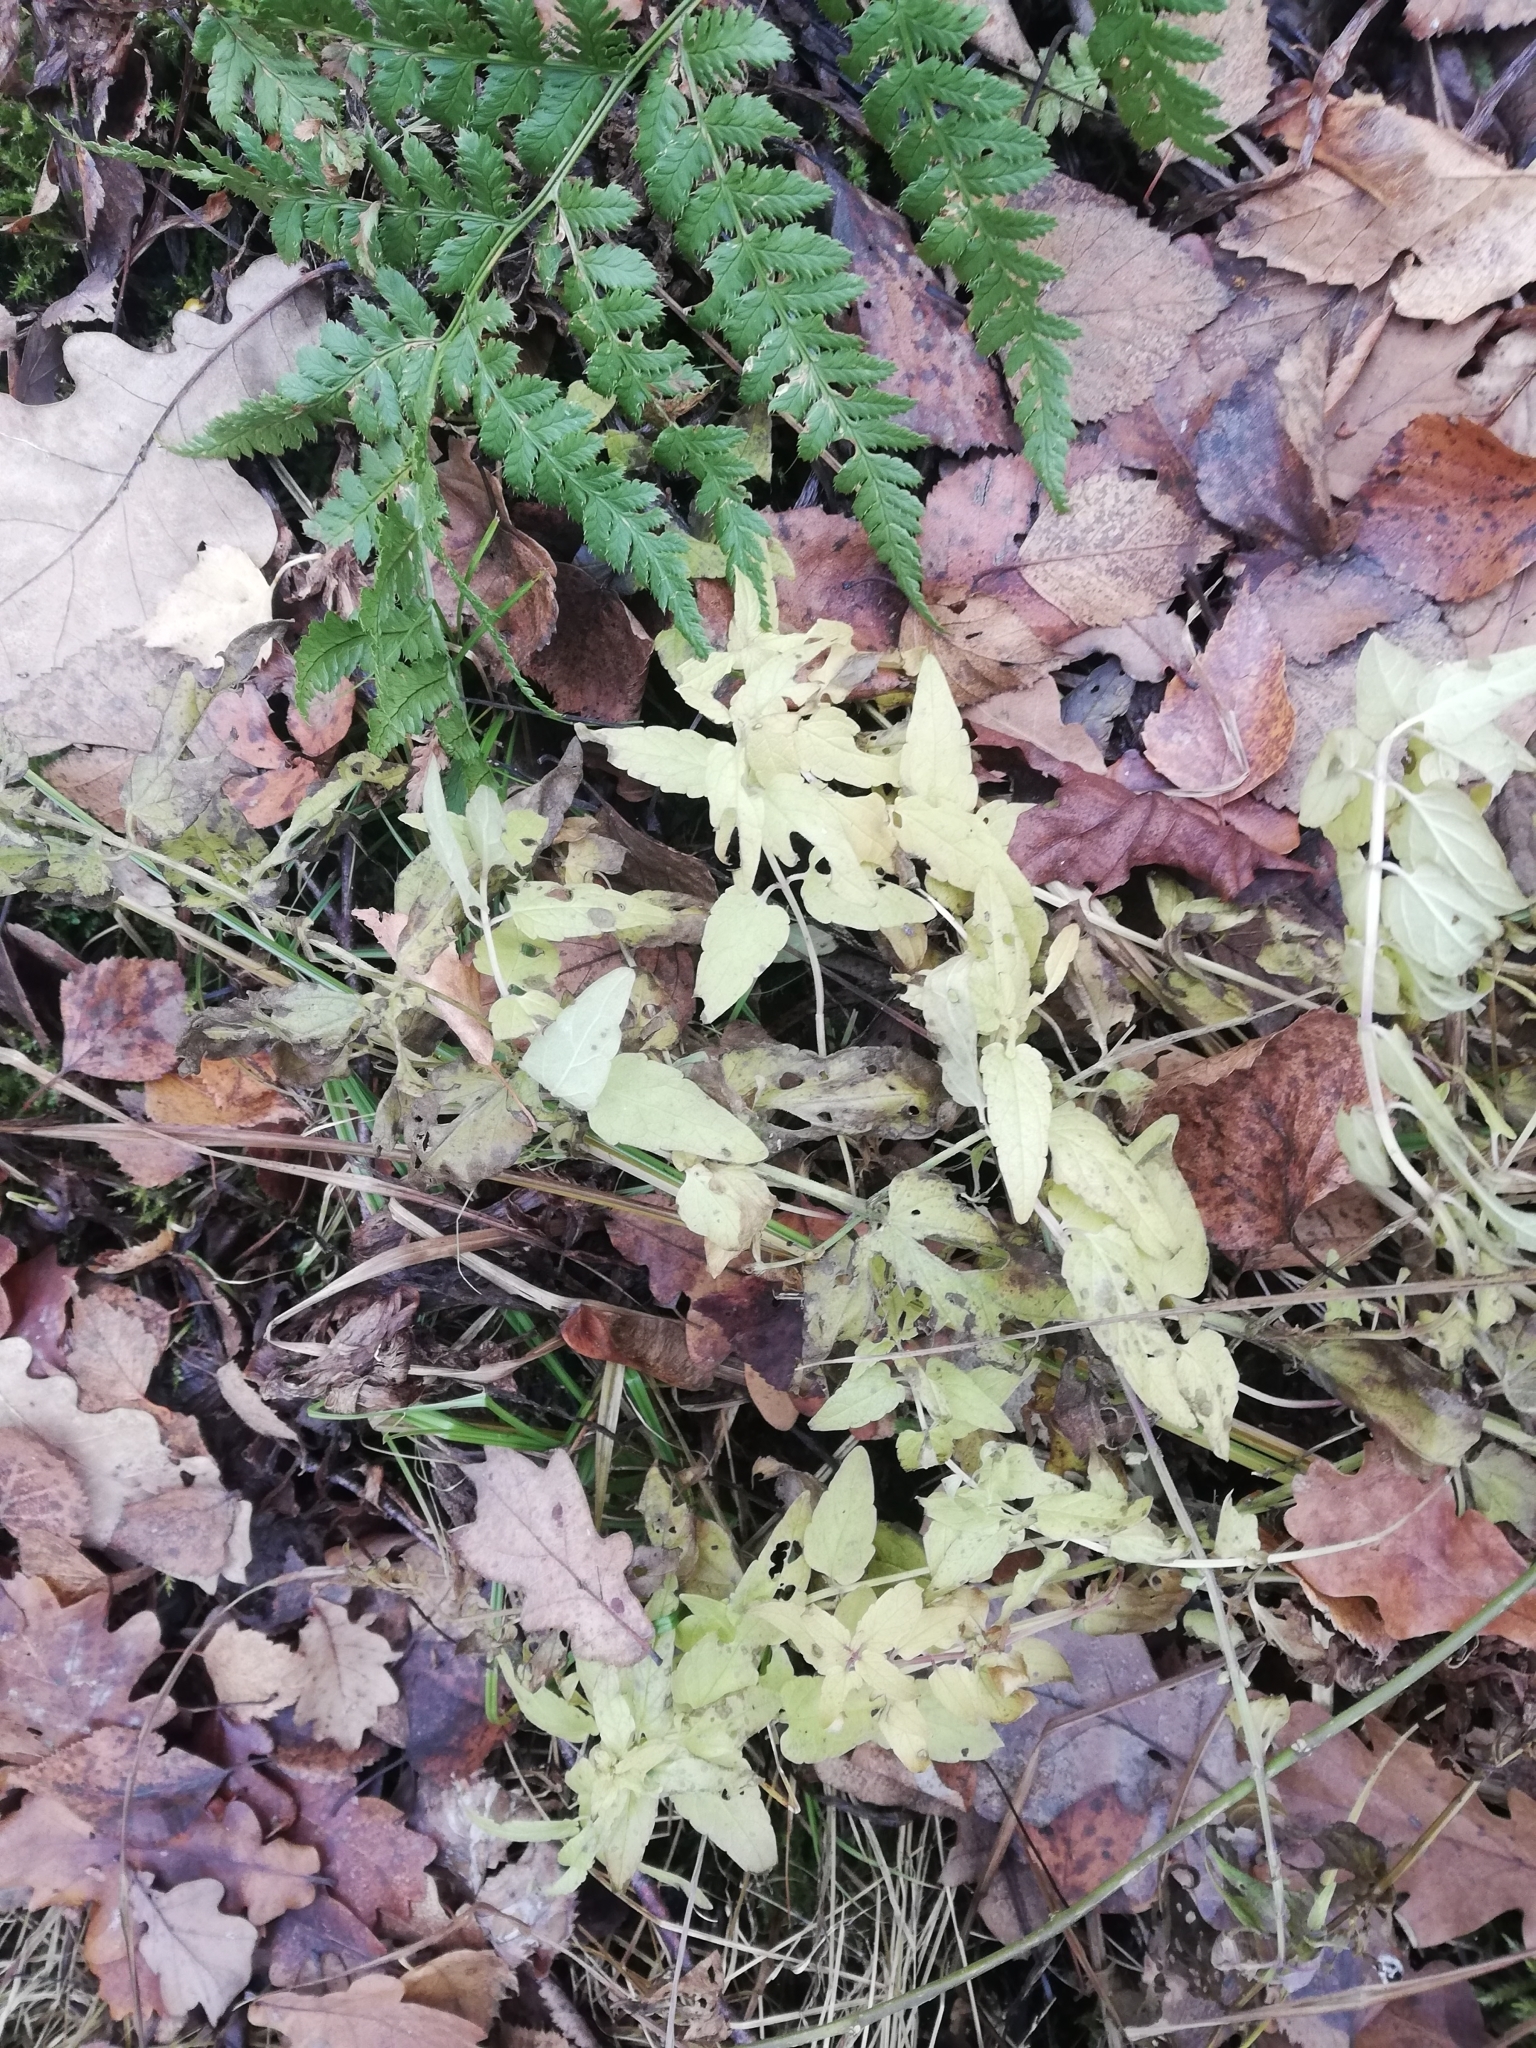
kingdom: Plantae
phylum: Tracheophyta
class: Magnoliopsida
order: Lamiales
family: Lamiaceae
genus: Scutellaria
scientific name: Scutellaria galericulata
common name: Skullcap
